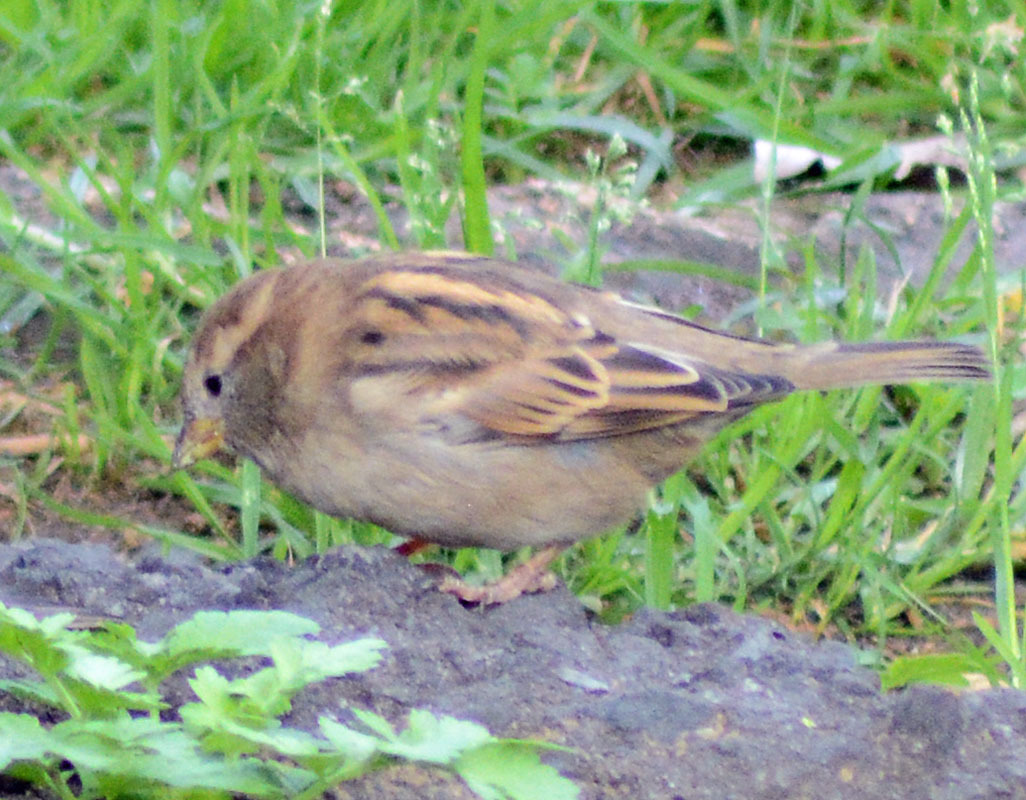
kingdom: Animalia
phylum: Chordata
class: Aves
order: Passeriformes
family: Passeridae
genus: Passer
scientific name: Passer domesticus
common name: House sparrow
